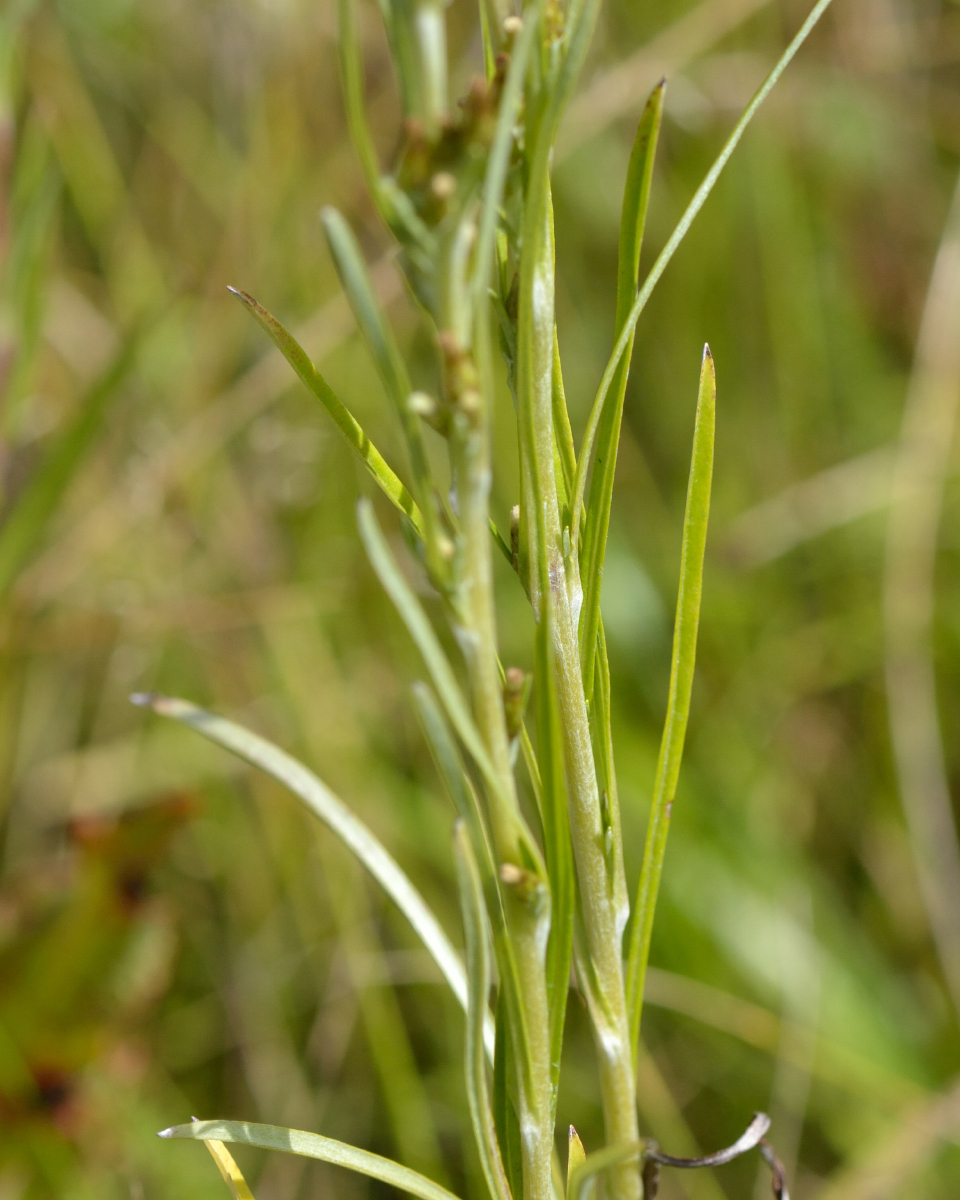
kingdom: Plantae
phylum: Tracheophyta
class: Magnoliopsida
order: Asterales
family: Asteraceae
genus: Omalotheca
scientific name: Omalotheca sylvatica
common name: Heath cudweed
